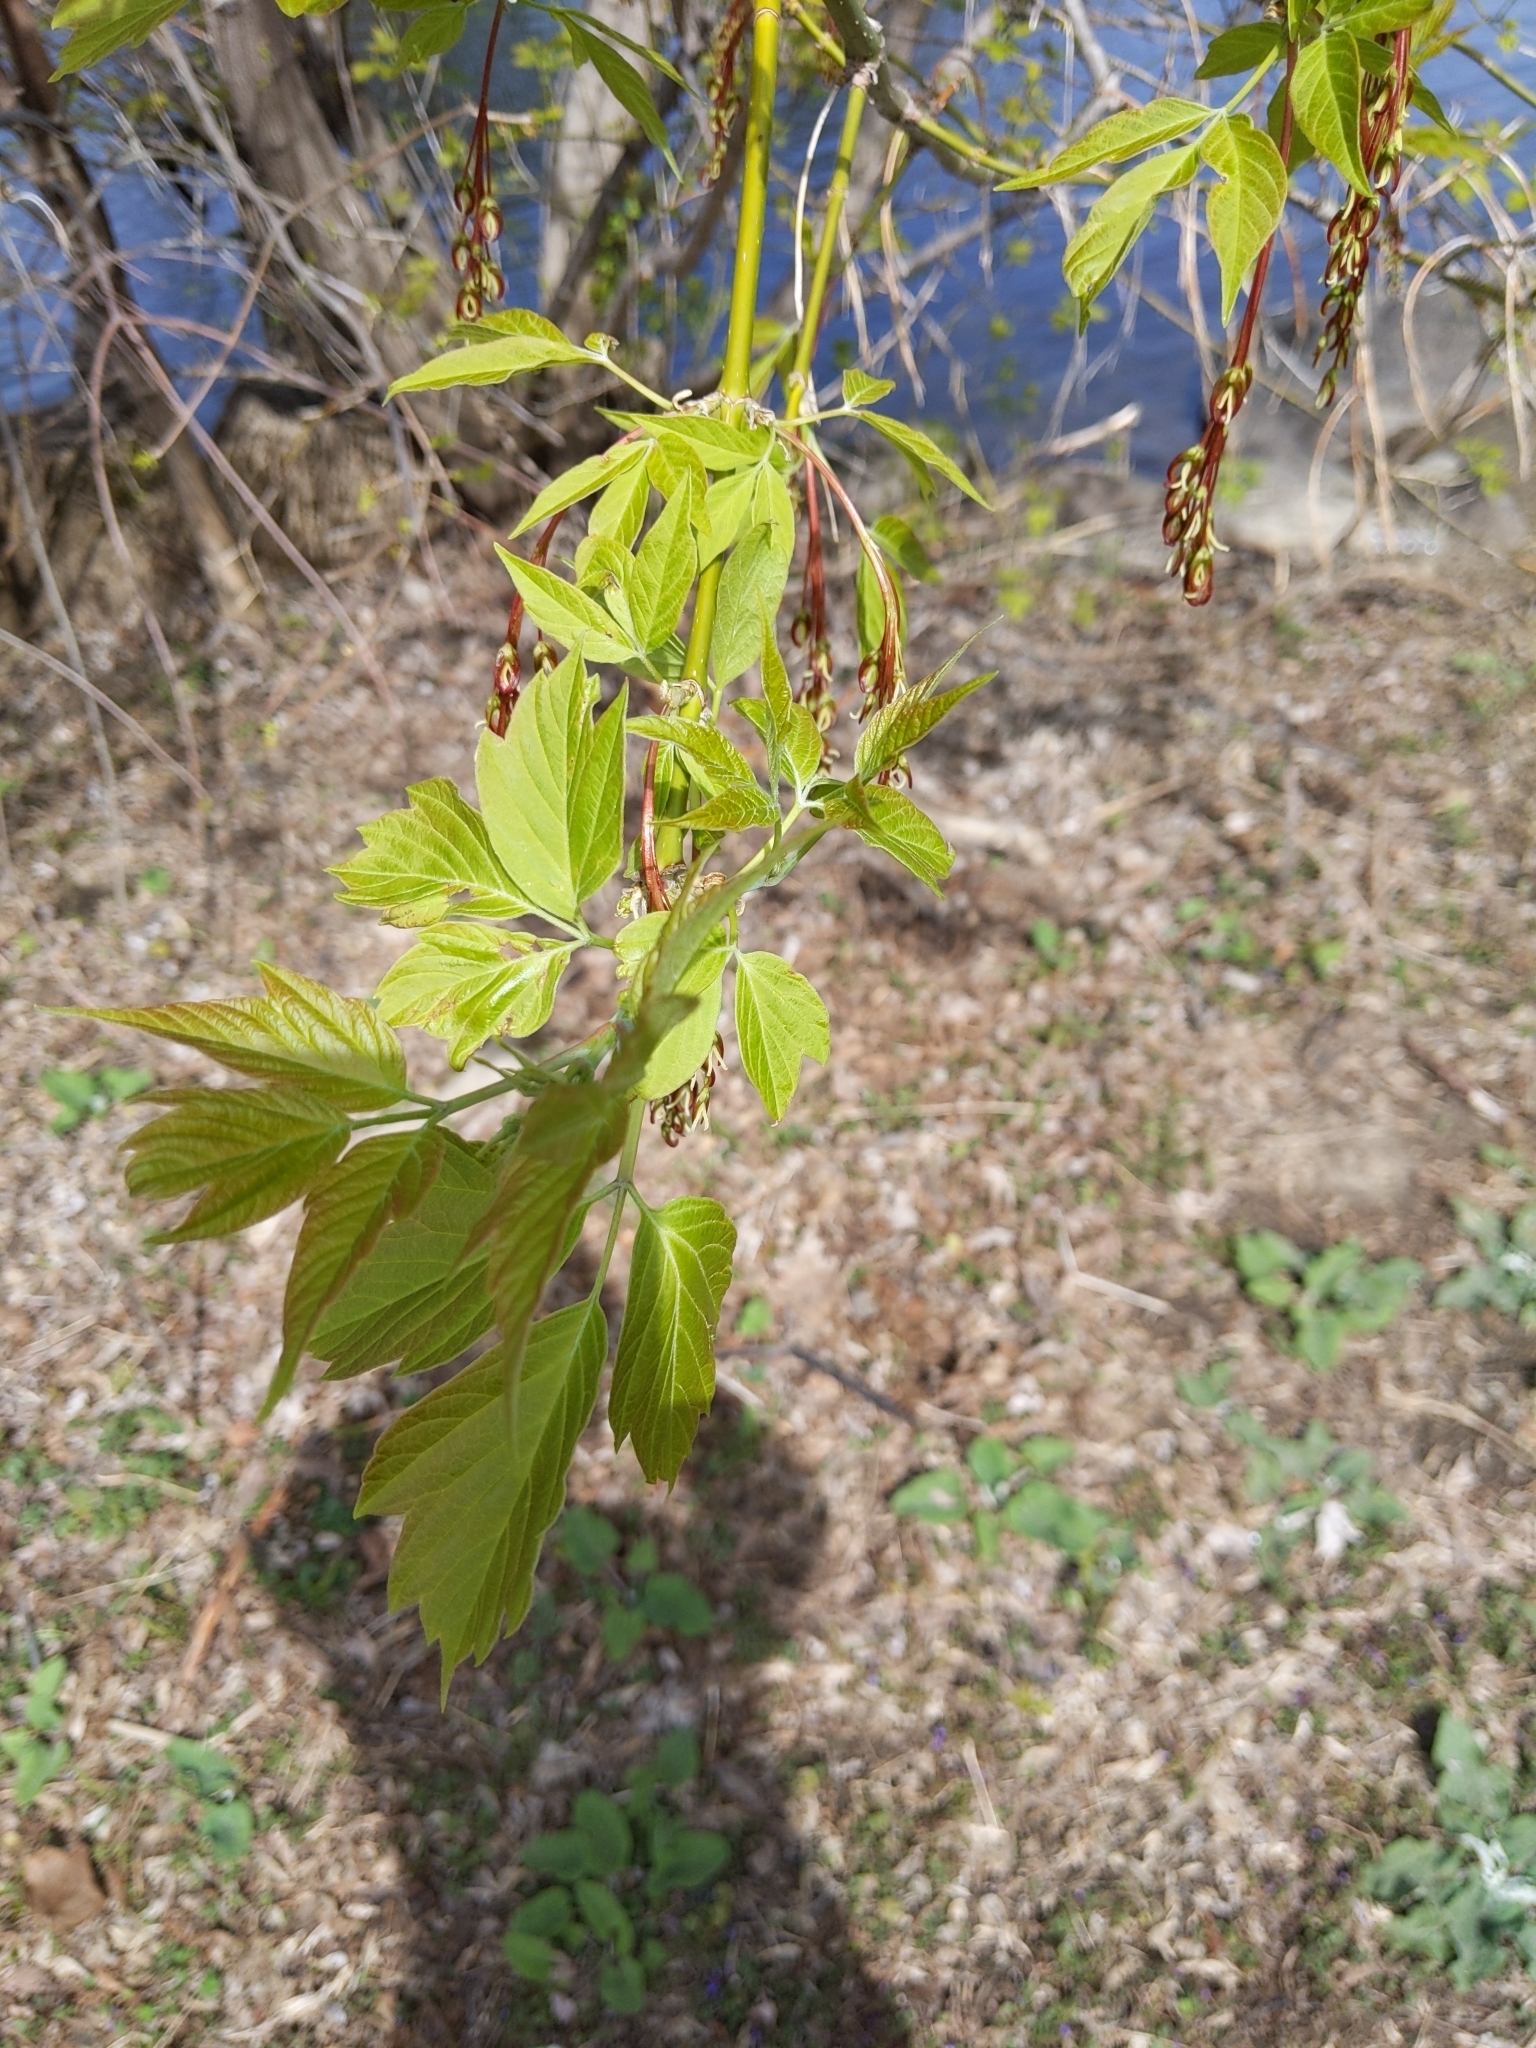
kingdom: Plantae
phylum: Tracheophyta
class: Magnoliopsida
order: Sapindales
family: Sapindaceae
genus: Acer
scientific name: Acer negundo
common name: Ashleaf maple
